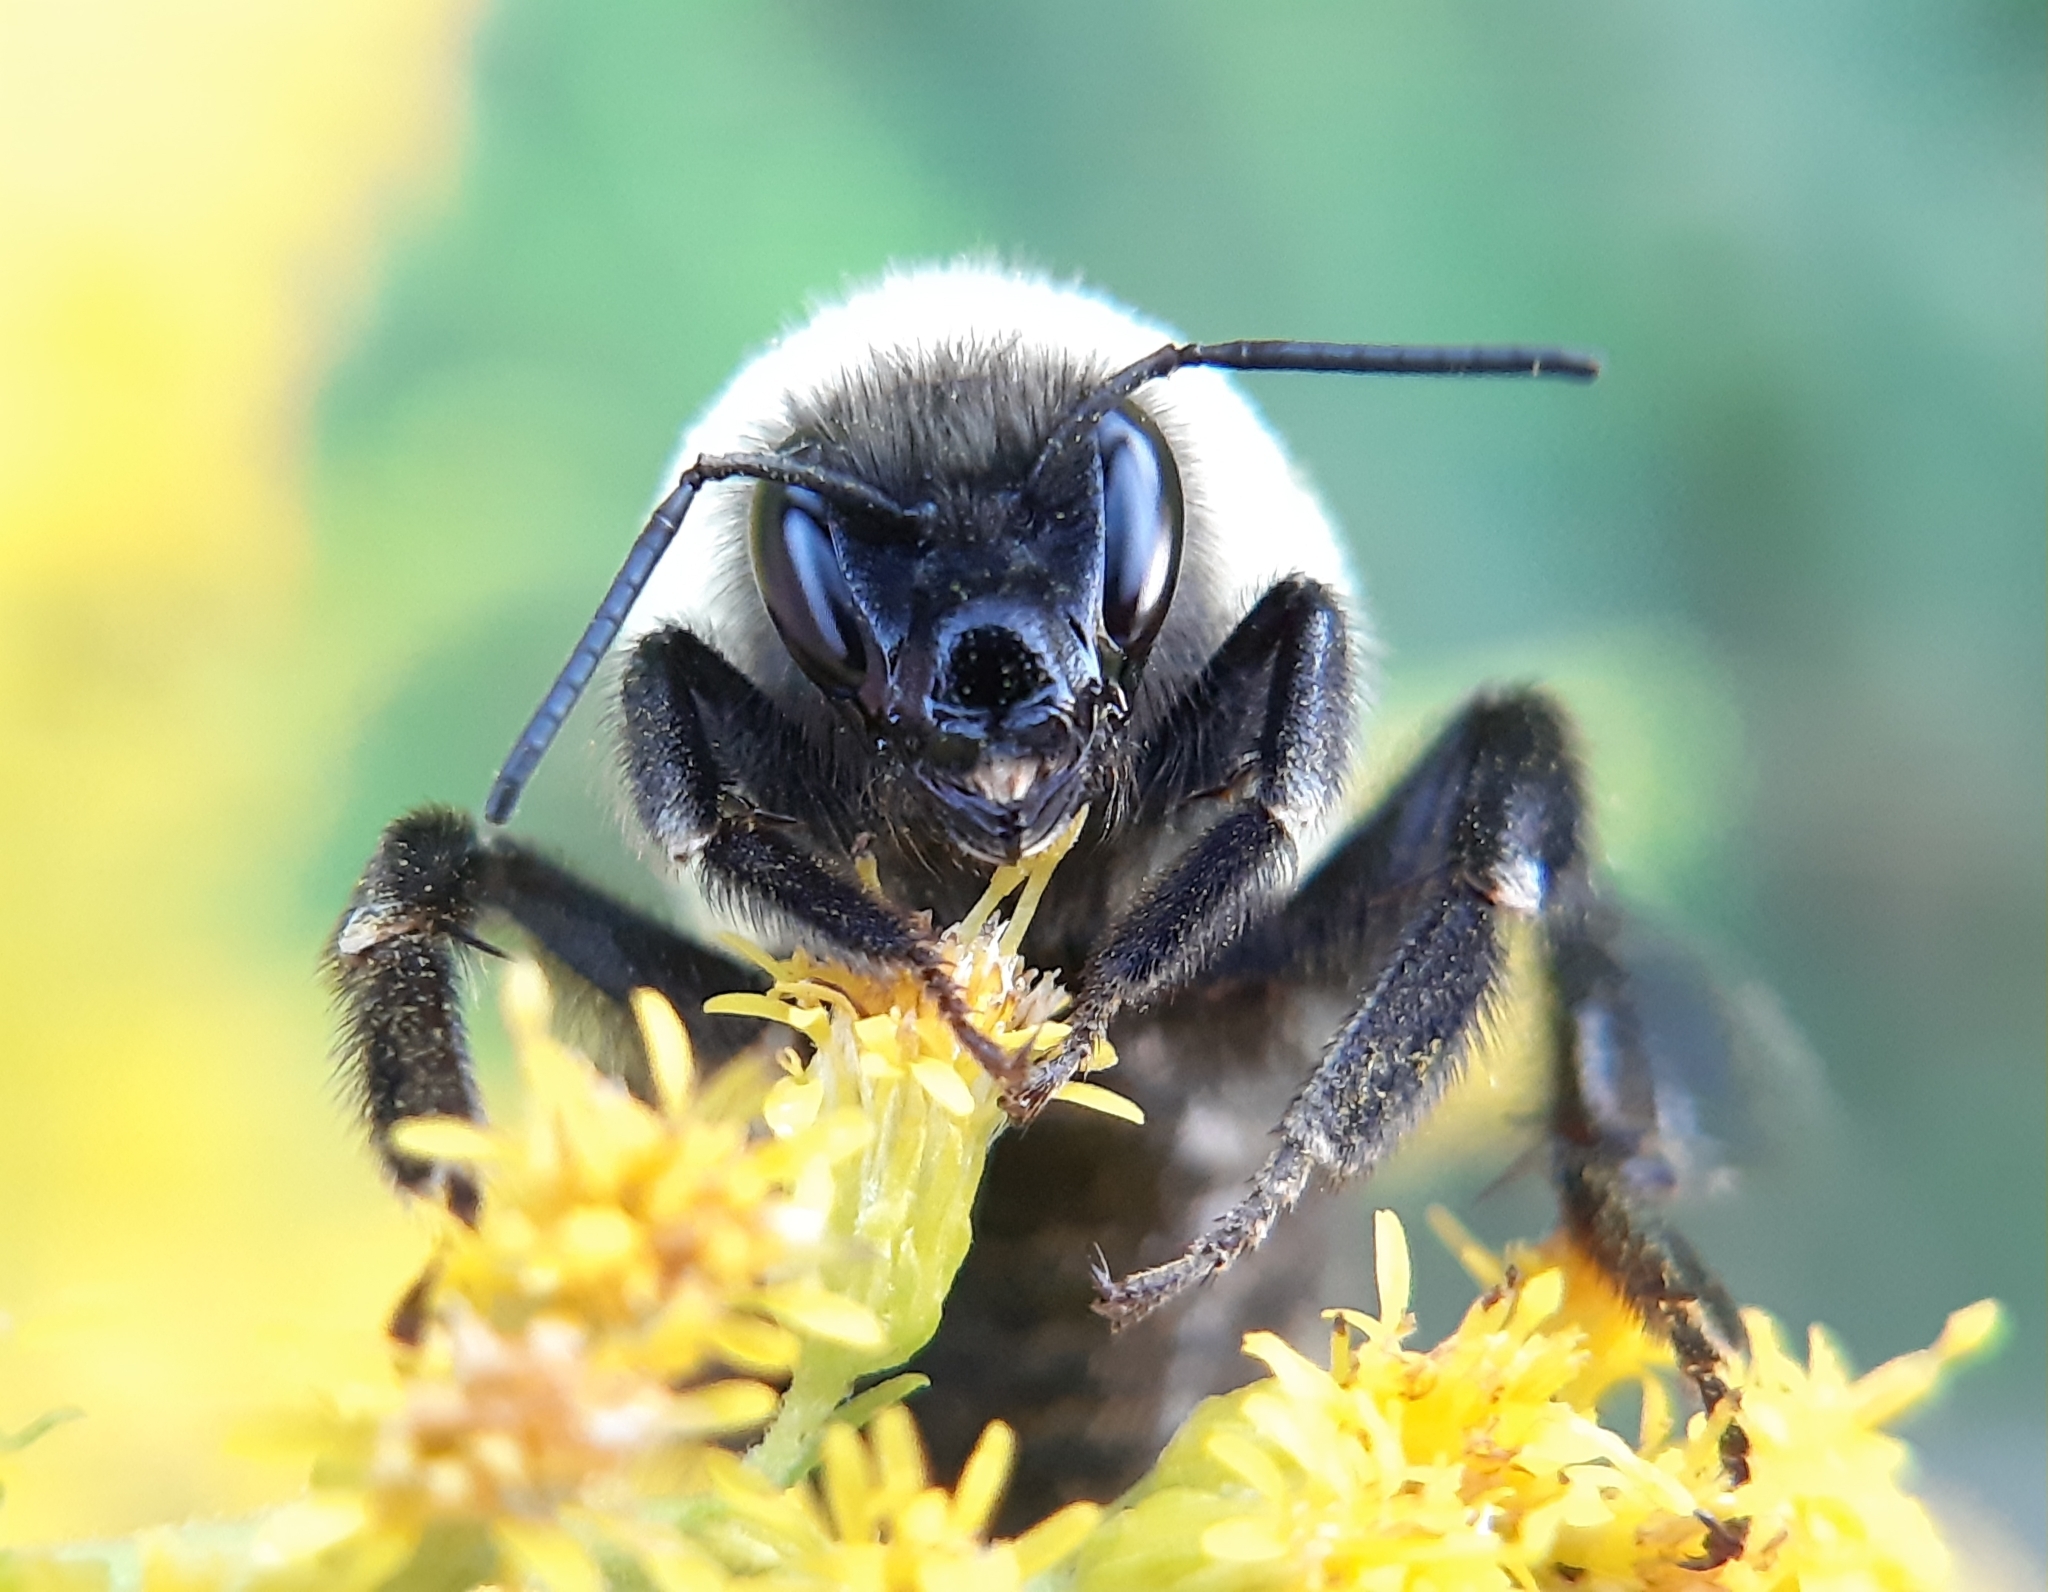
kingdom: Animalia
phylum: Arthropoda
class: Insecta
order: Hymenoptera
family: Apidae
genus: Bombus
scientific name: Bombus impatiens
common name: Common eastern bumble bee
